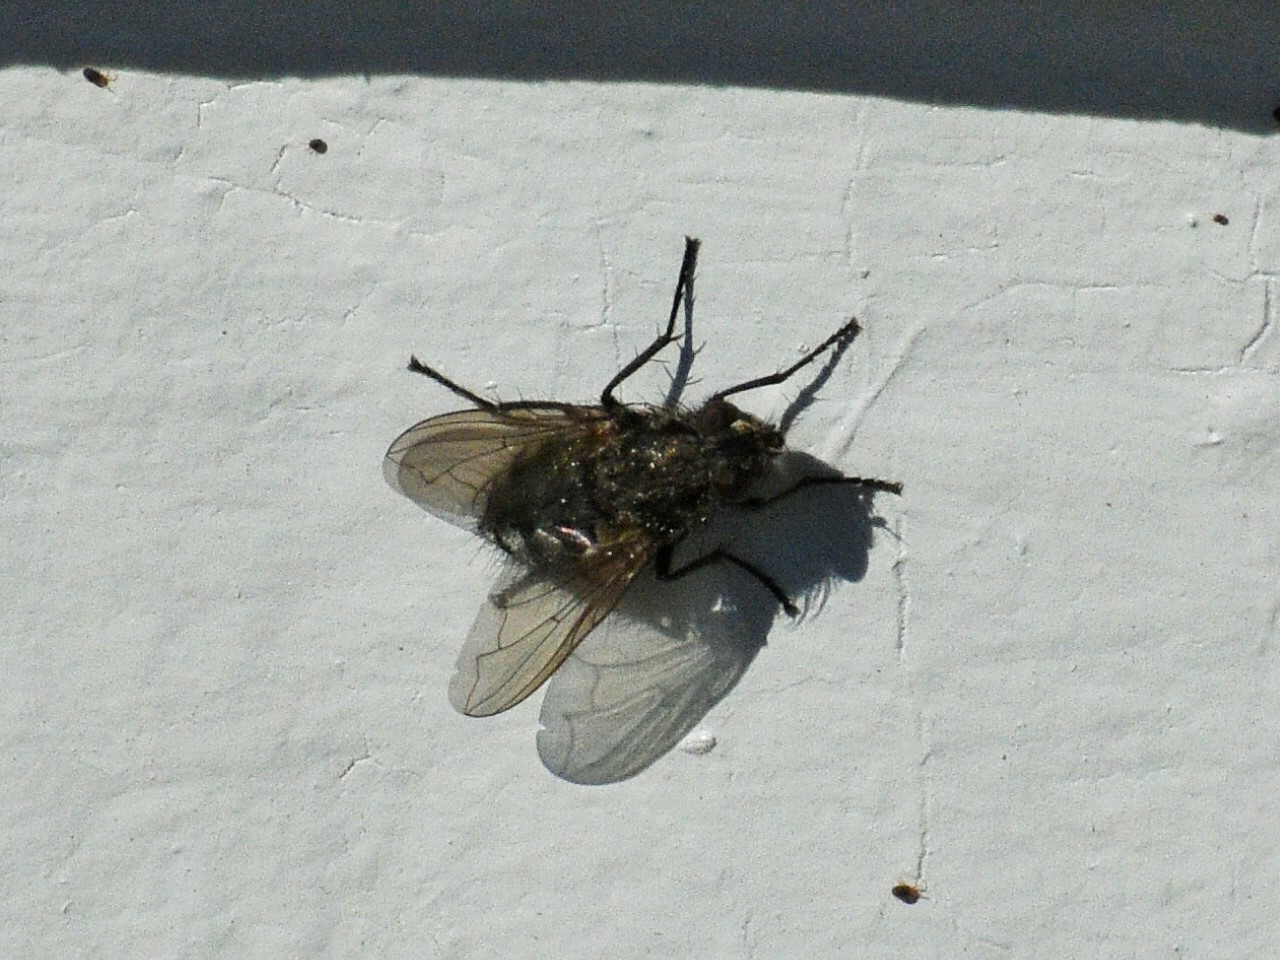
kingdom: Animalia
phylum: Arthropoda
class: Insecta
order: Diptera
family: Polleniidae
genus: Pollenia
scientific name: Pollenia vagabunda
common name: Vagabund cluster fly
